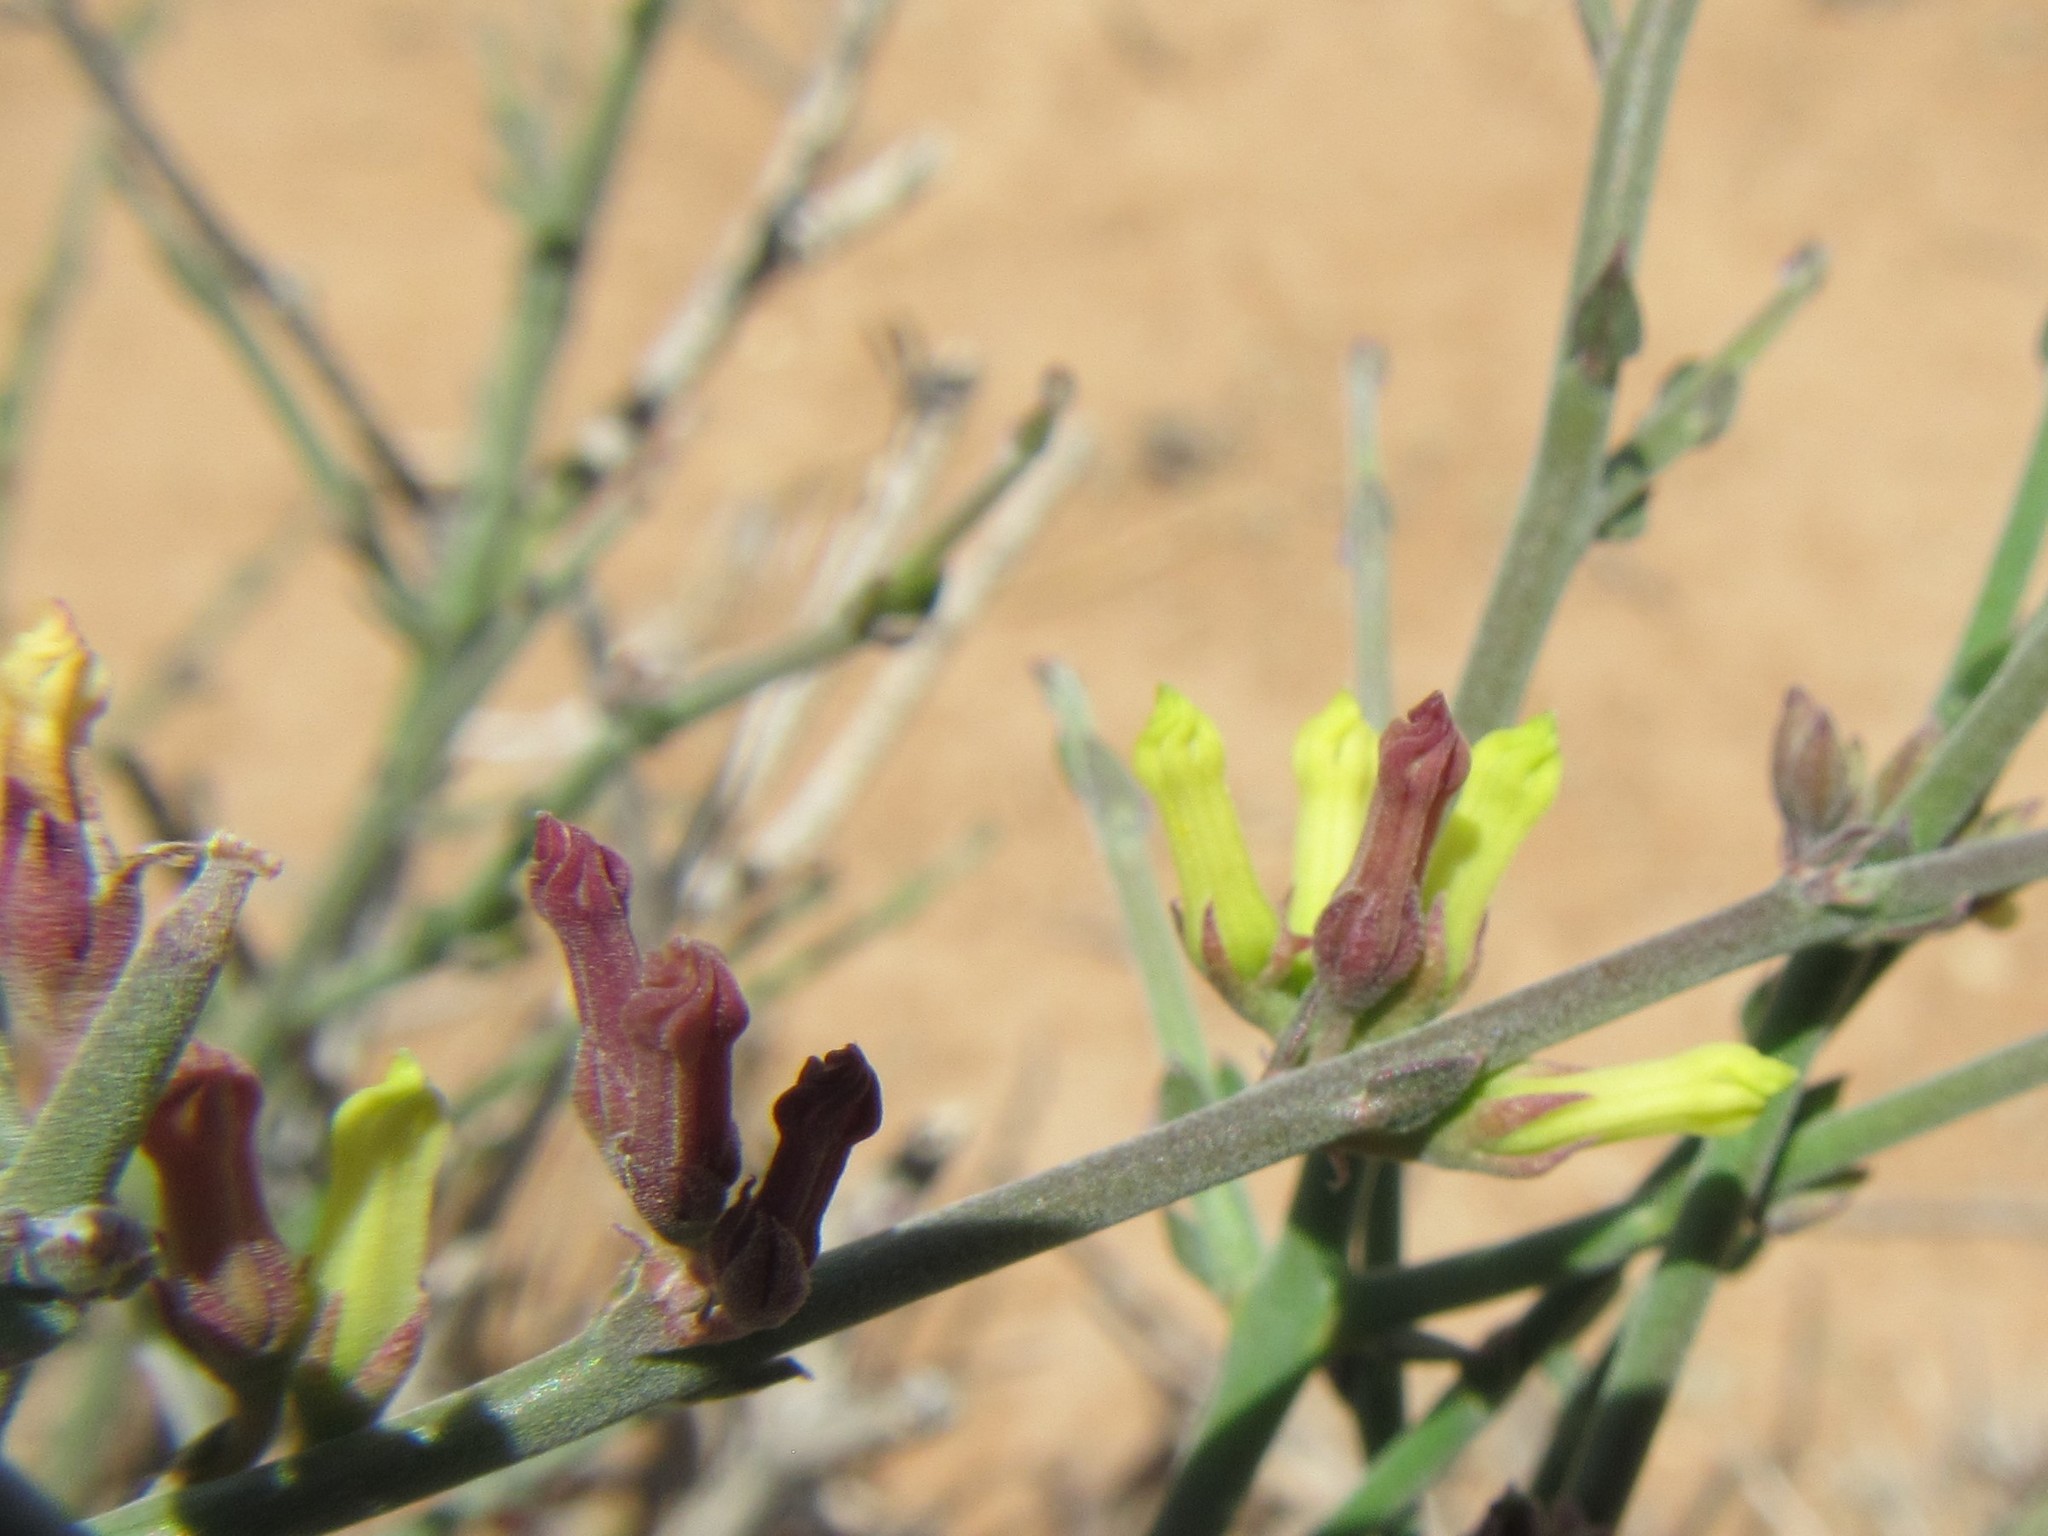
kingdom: Plantae
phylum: Tracheophyta
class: Magnoliopsida
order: Gentianales
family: Apocynaceae
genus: Microloma
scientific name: Microloma armatum
